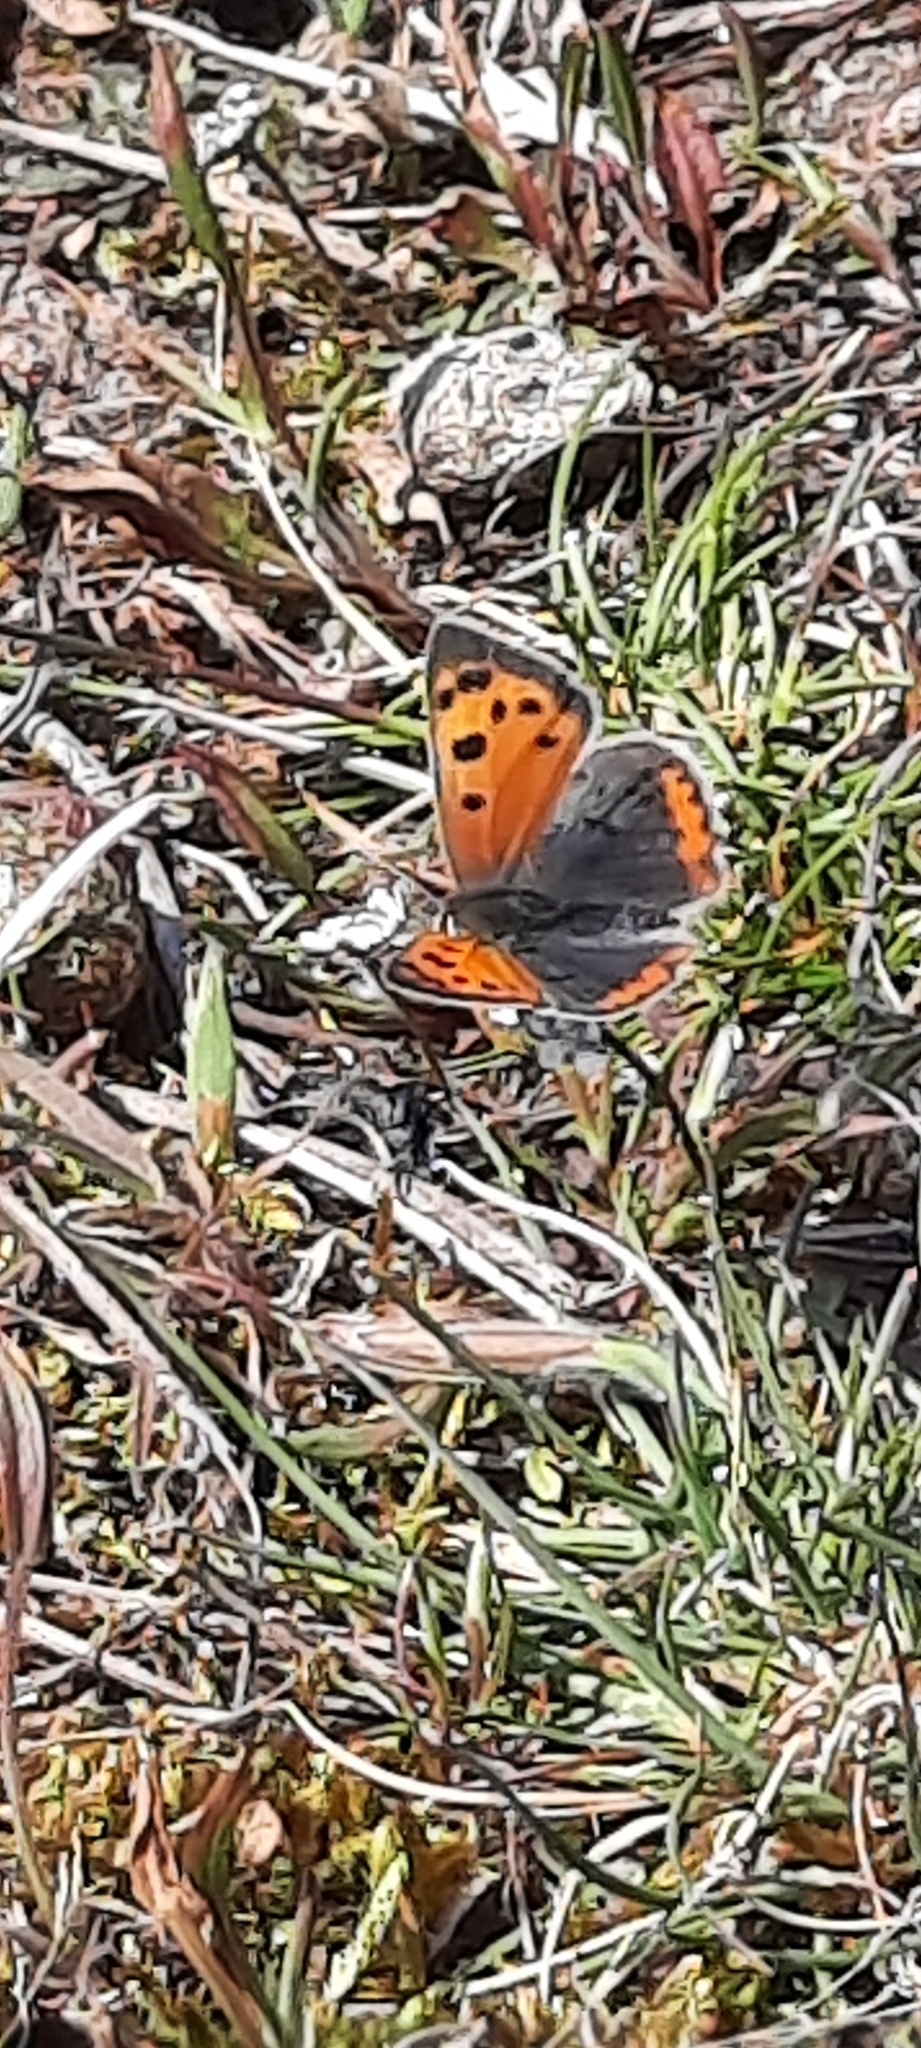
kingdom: Animalia
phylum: Arthropoda
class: Insecta
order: Lepidoptera
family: Lycaenidae
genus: Lycaena
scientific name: Lycaena phlaeas
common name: Small copper
